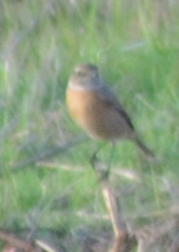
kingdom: Animalia
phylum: Chordata
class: Aves
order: Passeriformes
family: Muscicapidae
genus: Saxicola
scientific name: Saxicola rubicola
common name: European stonechat
